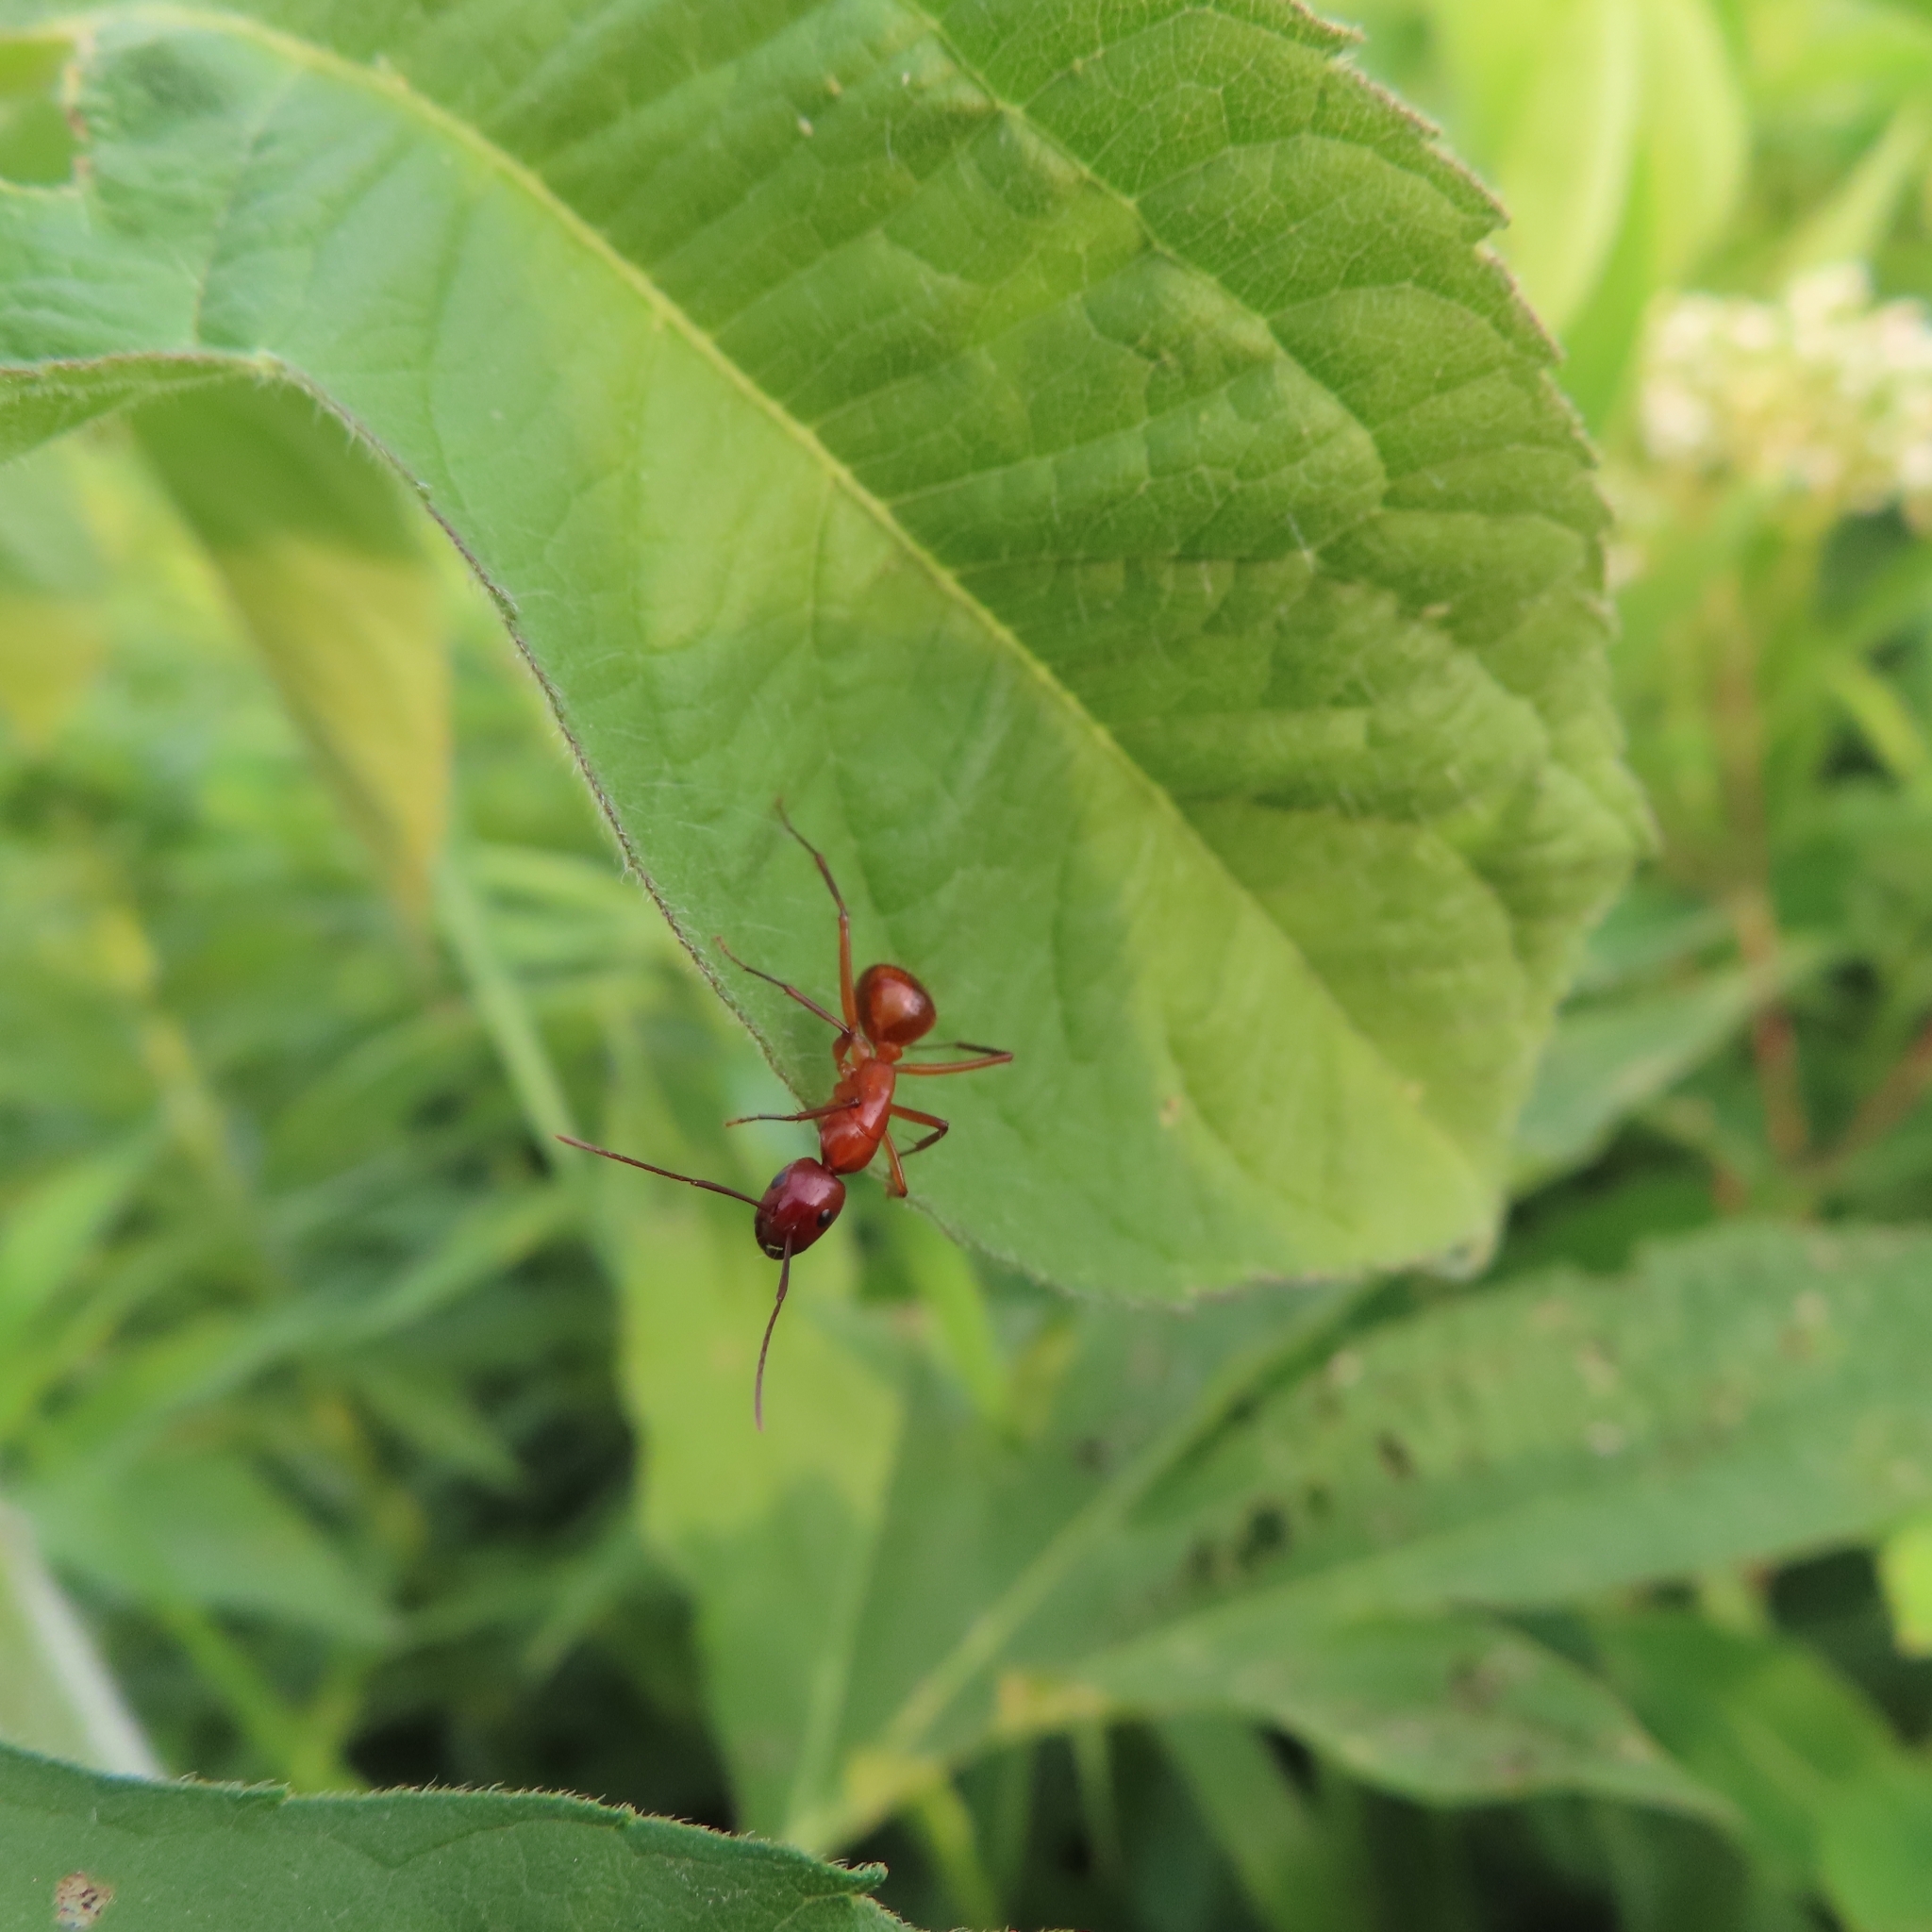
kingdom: Animalia
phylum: Arthropoda
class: Insecta
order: Hymenoptera
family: Formicidae
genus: Camponotus
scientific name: Camponotus castaneus
